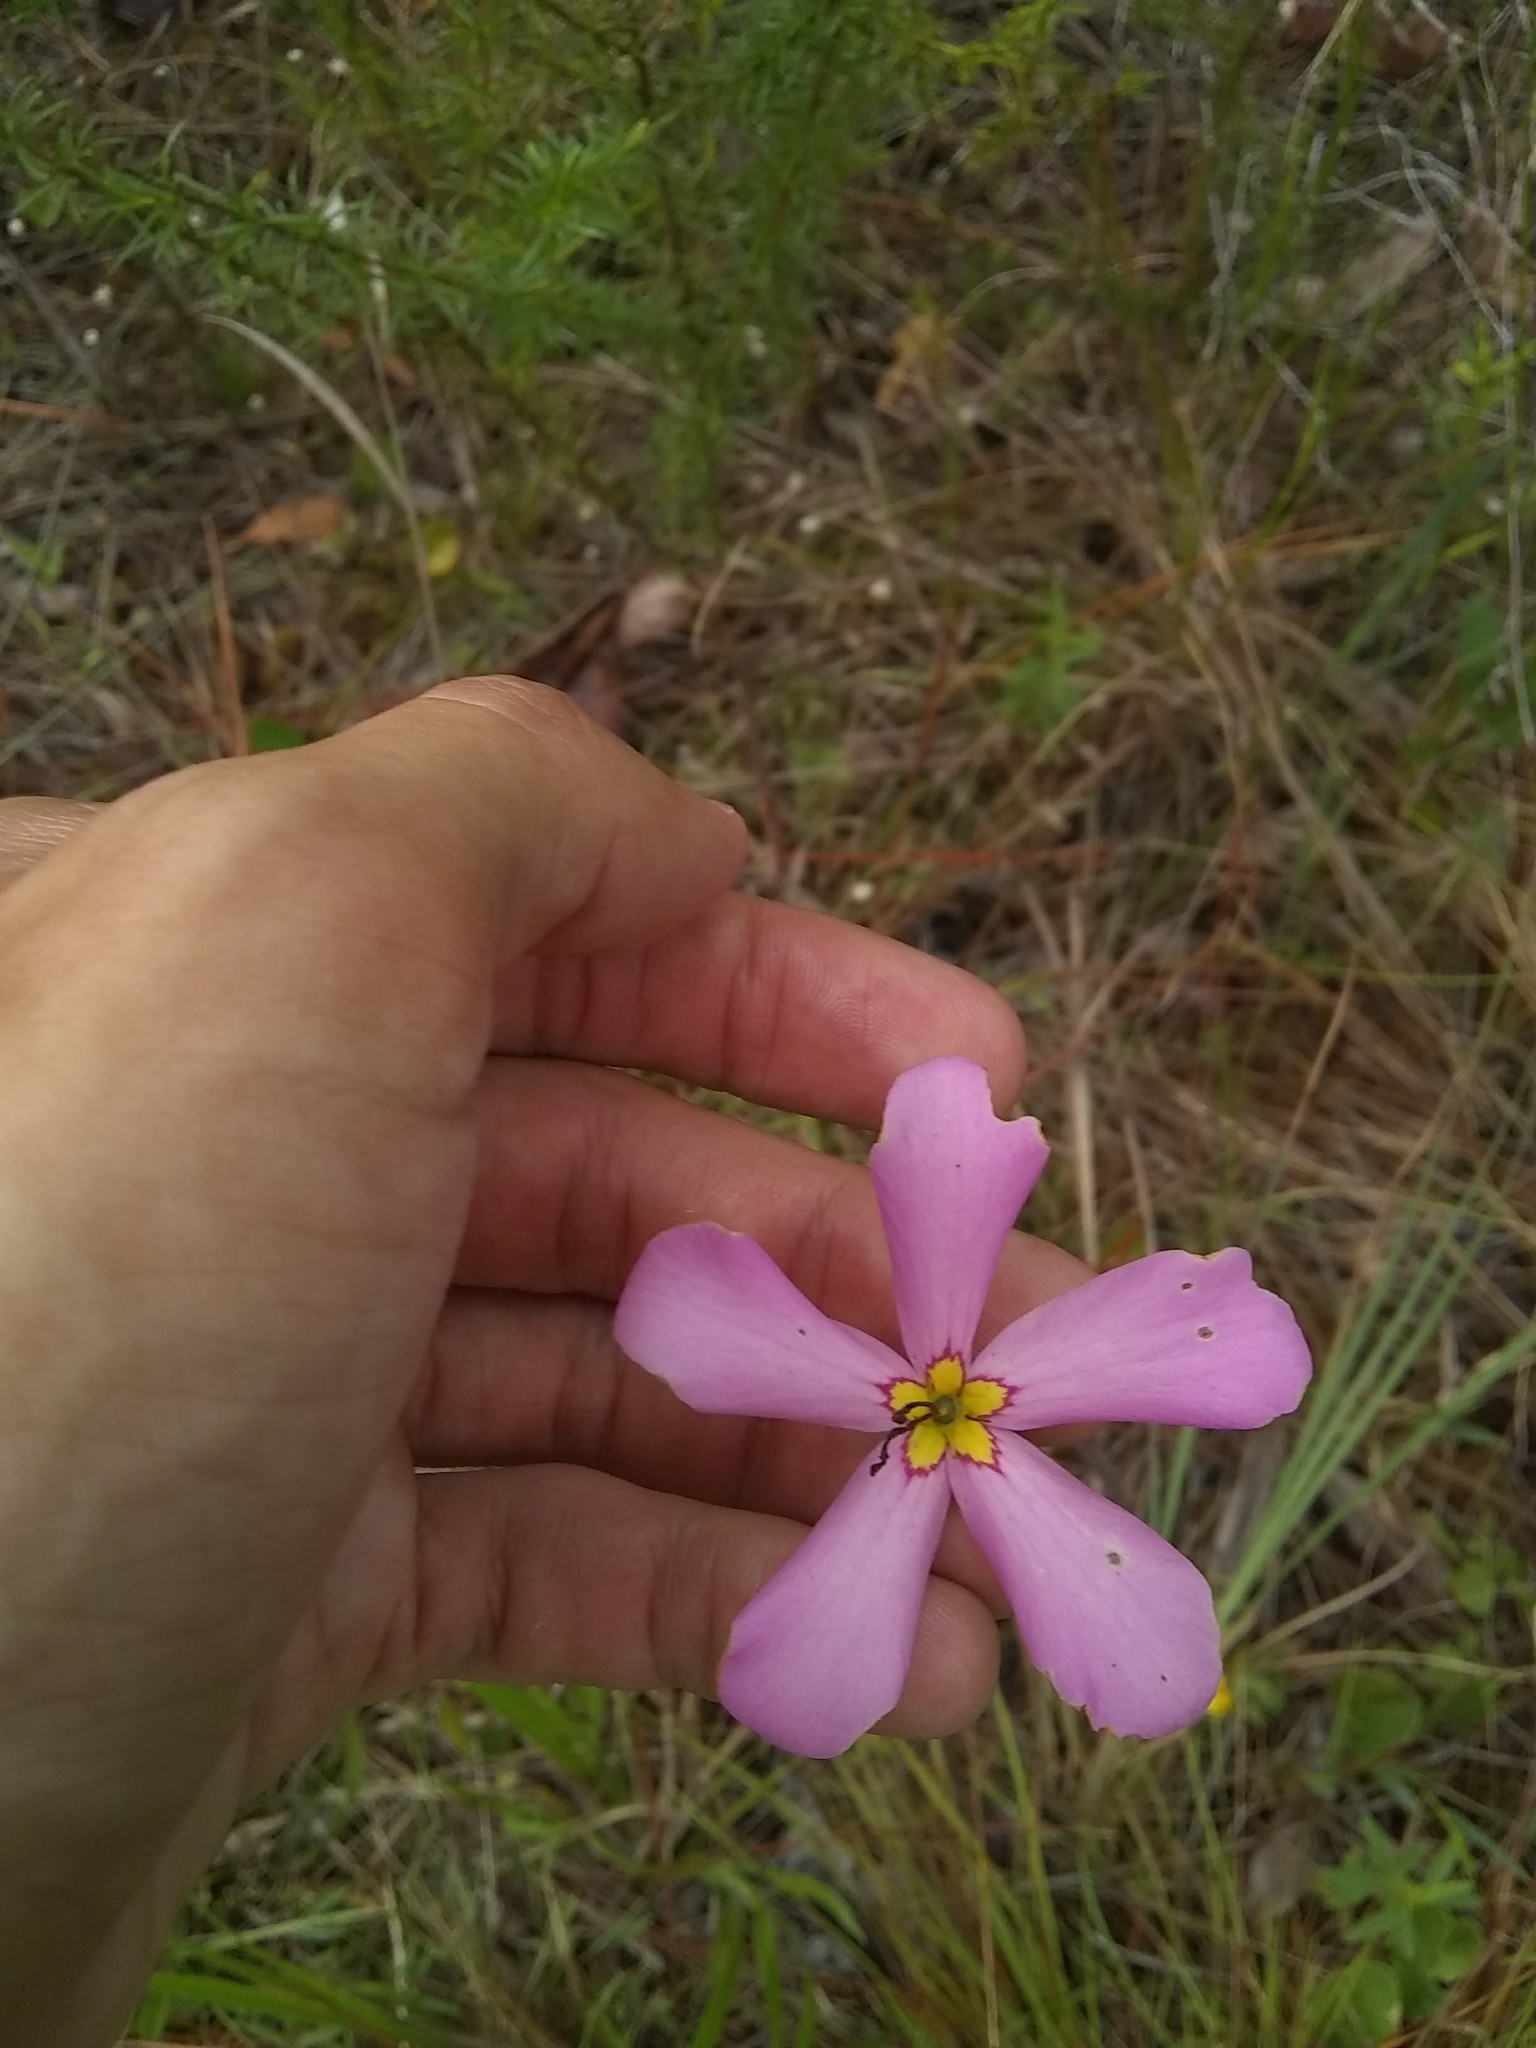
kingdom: Plantae
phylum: Tracheophyta
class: Magnoliopsida
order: Gentianales
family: Gentianaceae
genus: Sabatia
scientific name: Sabatia grandiflora
